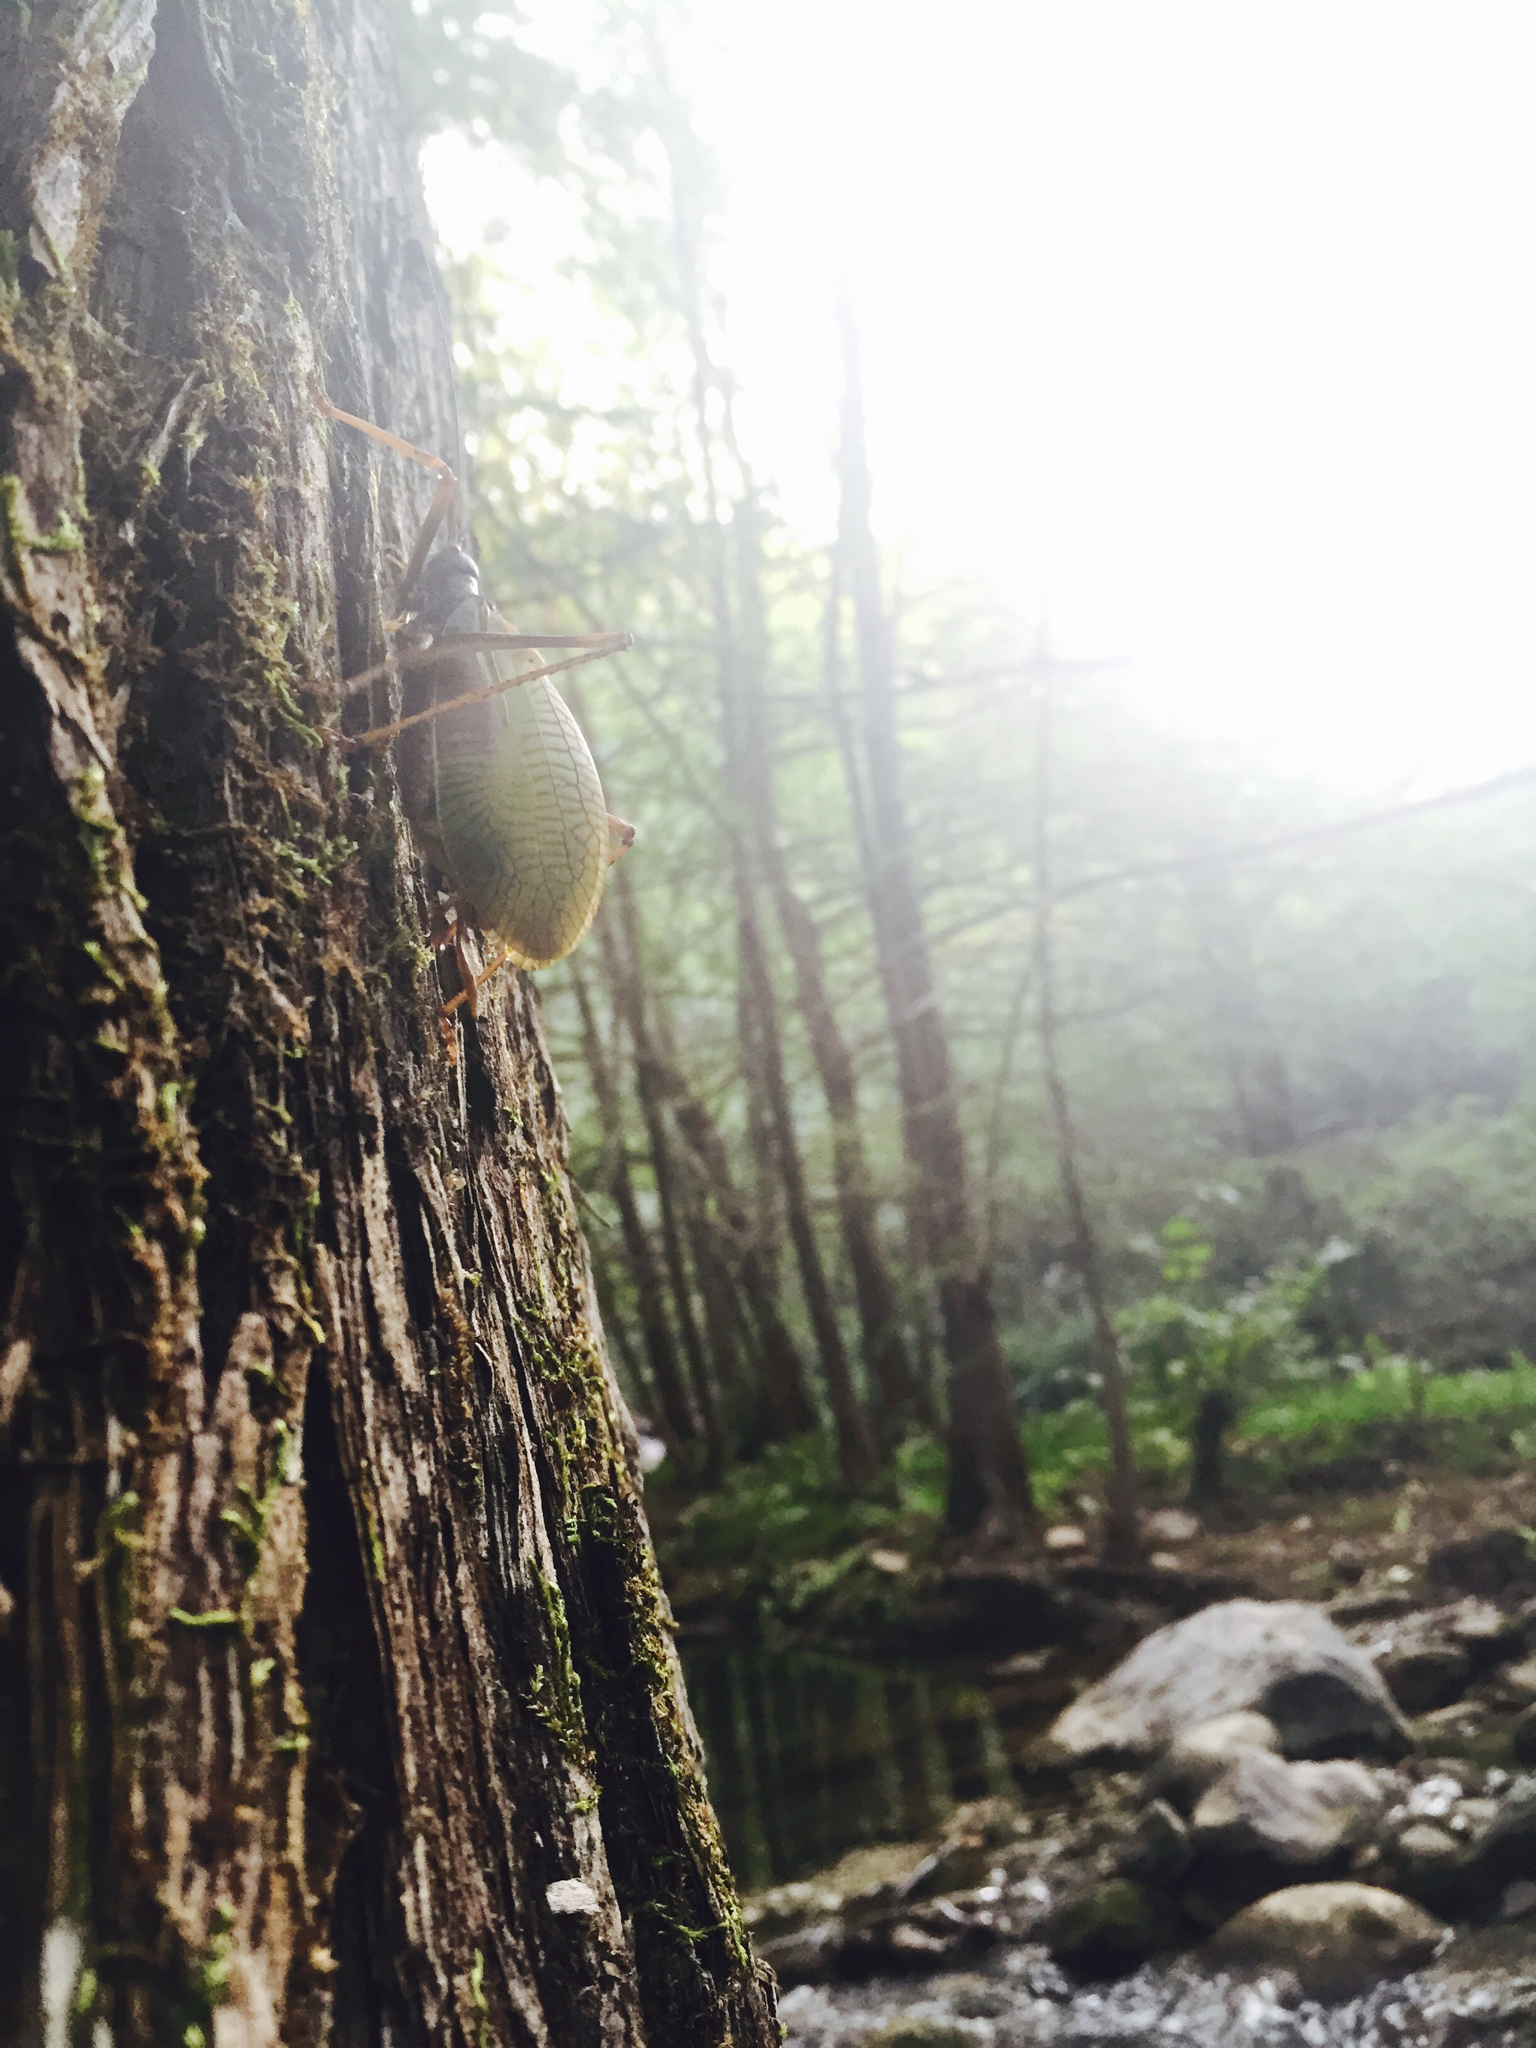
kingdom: Animalia
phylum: Arthropoda
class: Insecta
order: Orthoptera
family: Tettigoniidae
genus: Pterophylla
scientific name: Pterophylla beltrani
